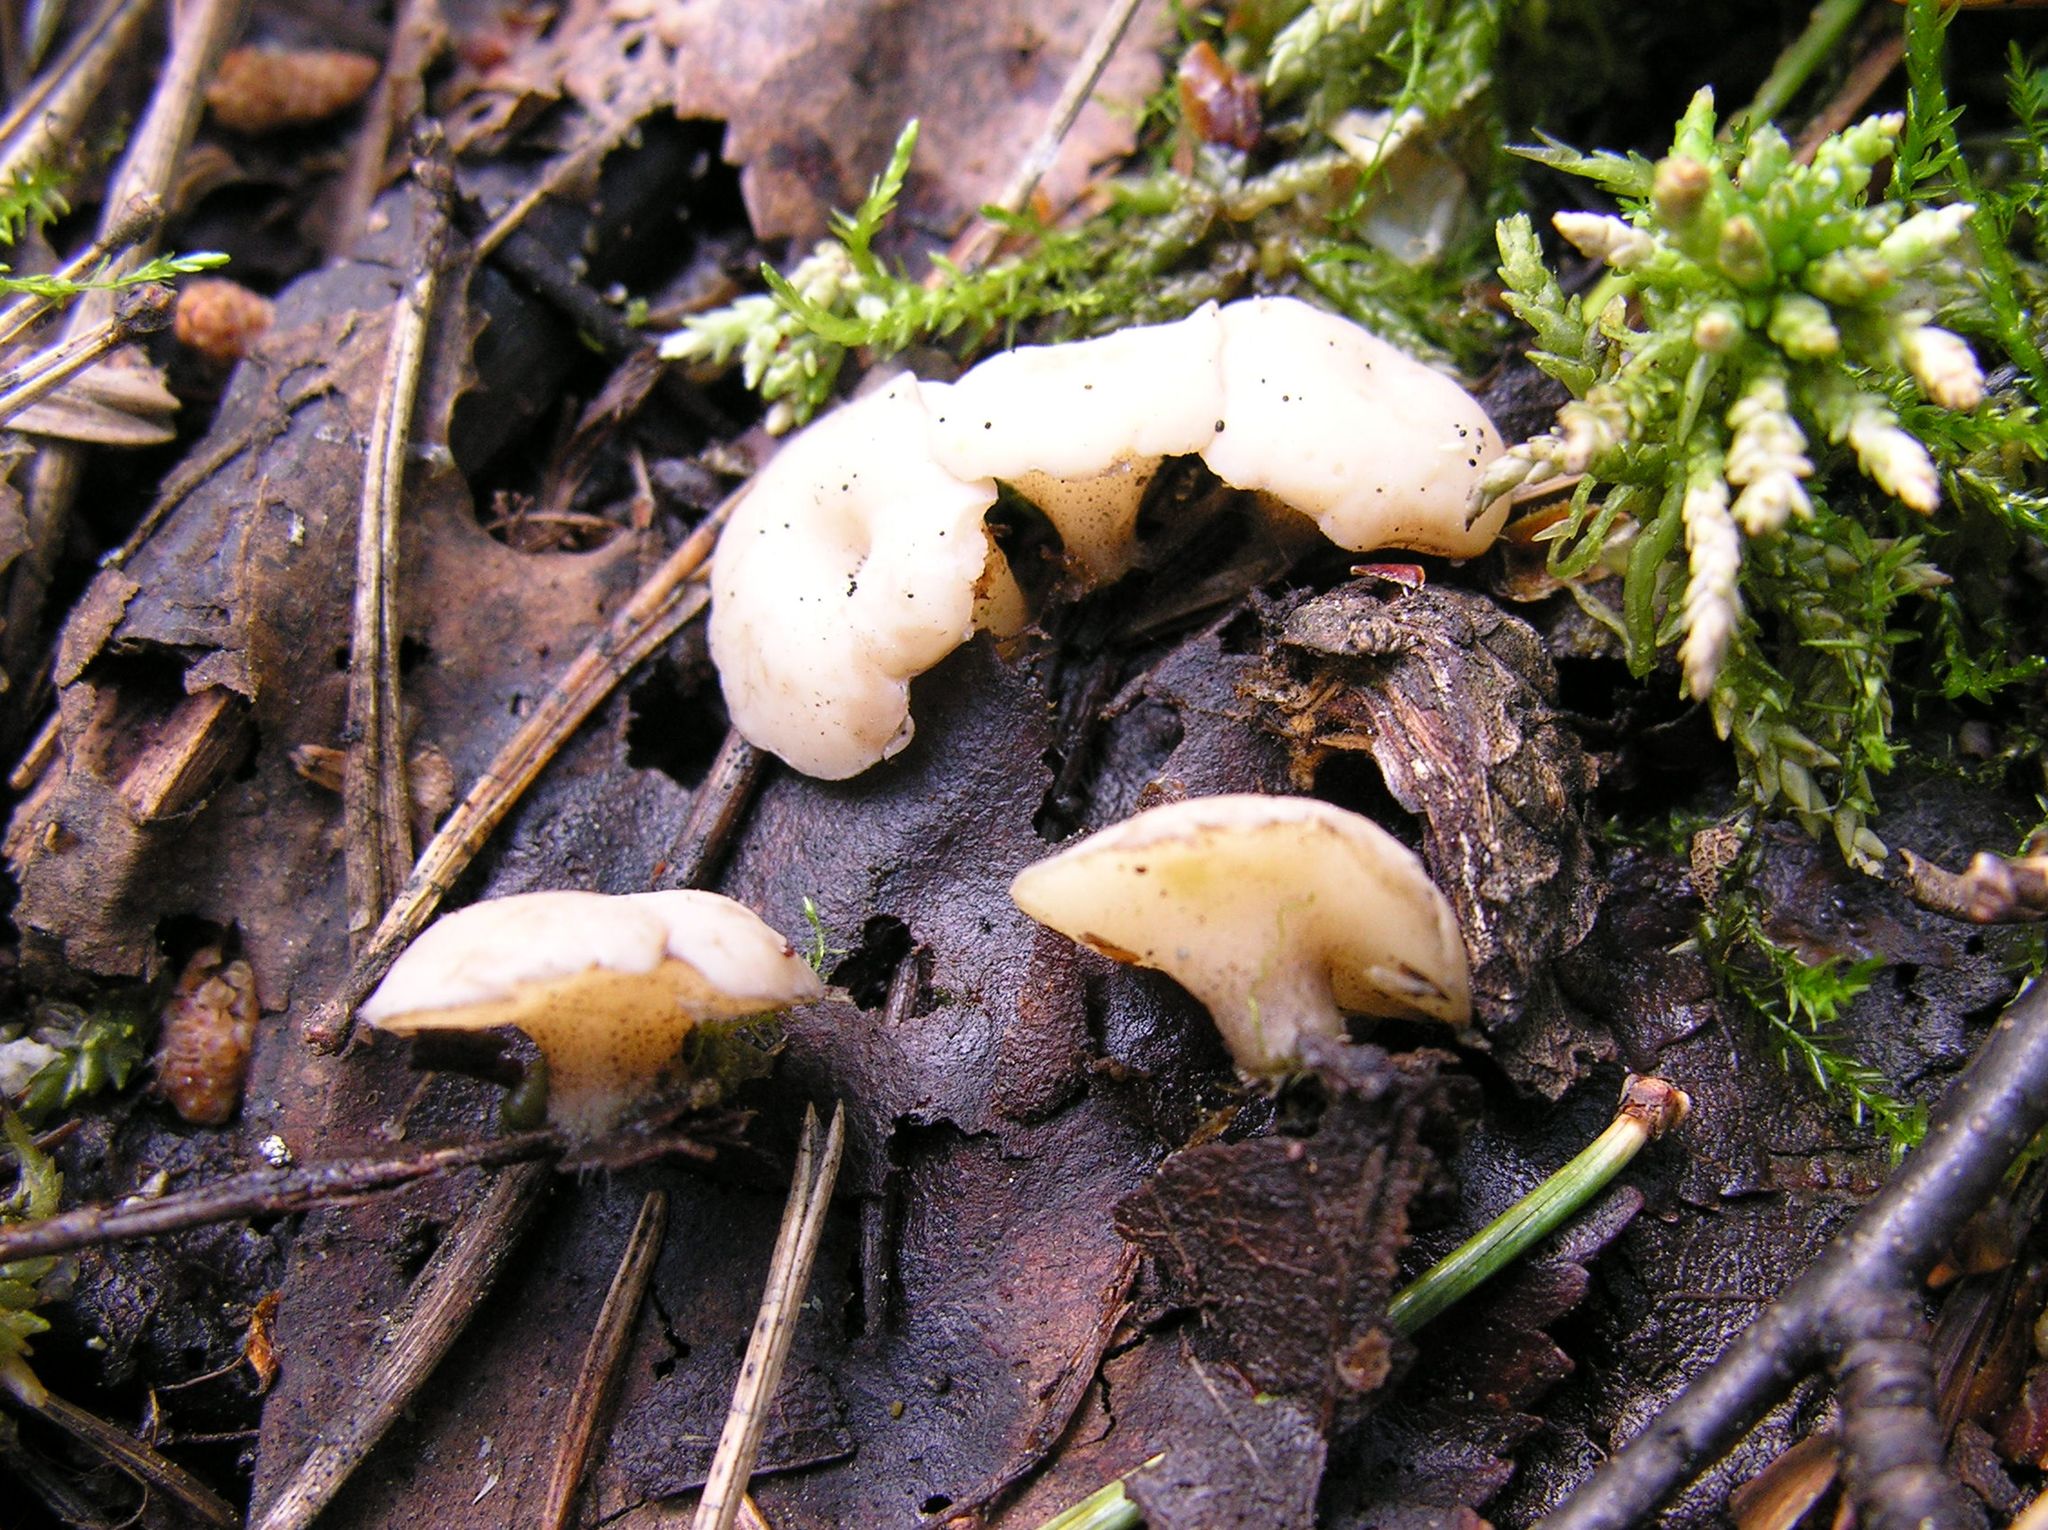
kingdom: Fungi
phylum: Ascomycota
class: Leotiomycetes
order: Helotiales
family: Tricladiaceae
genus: Cudoniella
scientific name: Cudoniella tenuispora
